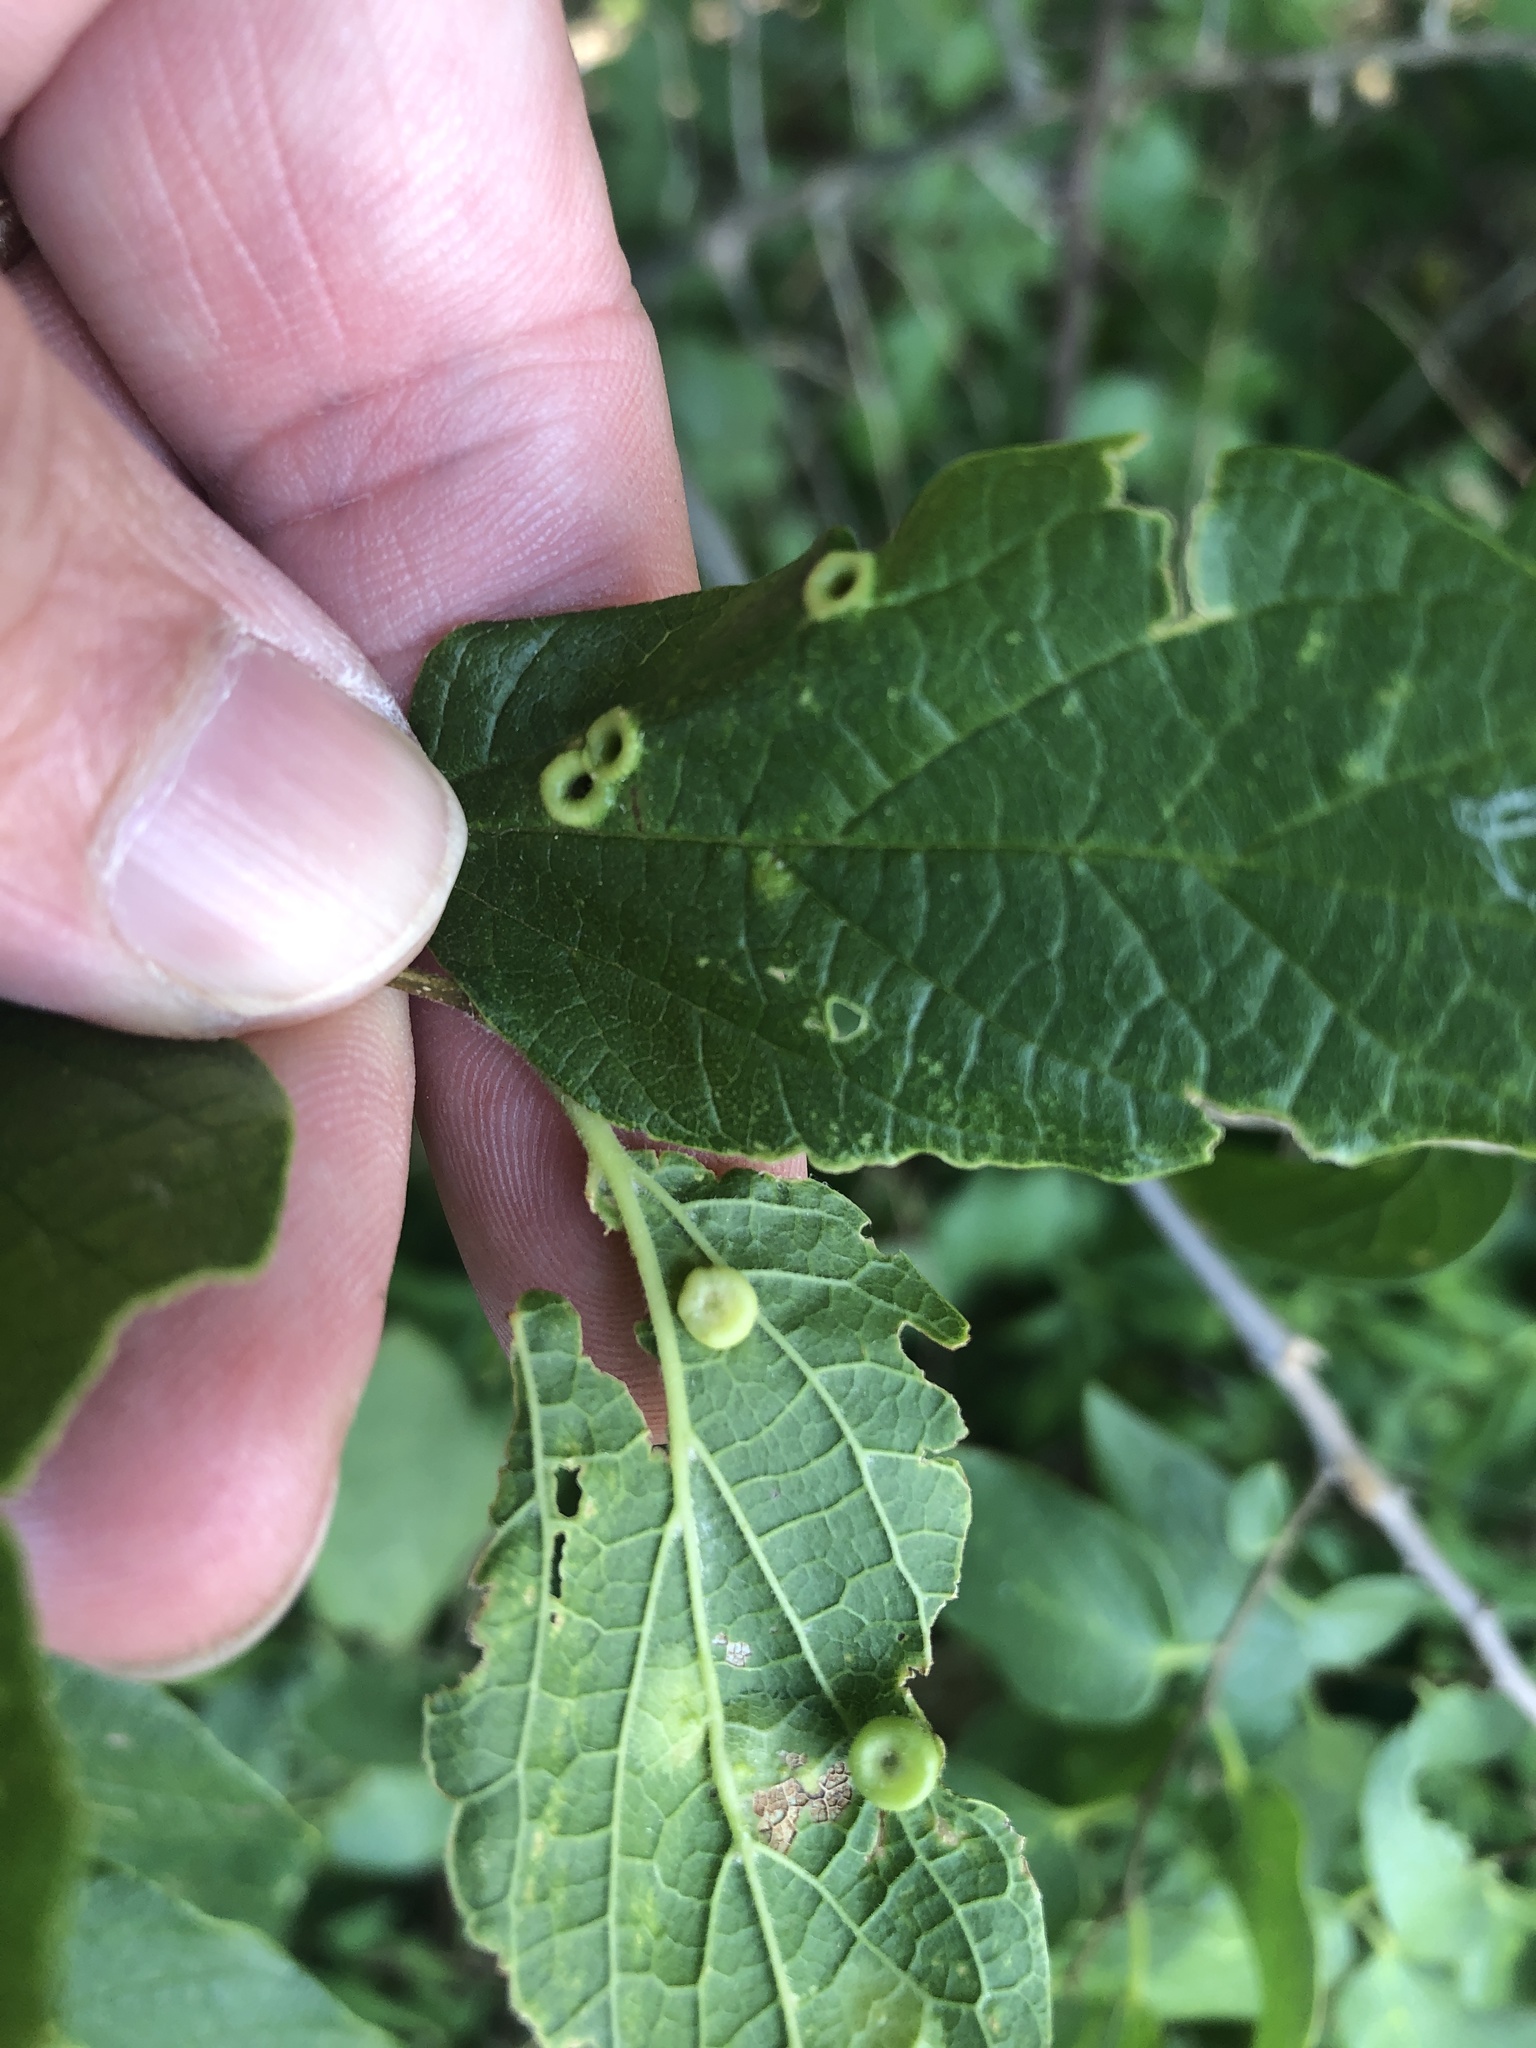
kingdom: Animalia
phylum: Arthropoda
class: Insecta
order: Hemiptera
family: Aphalaridae
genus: Pachypsylla
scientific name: Pachypsylla celtidismamma
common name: Hackberry nipplegall psyllid
